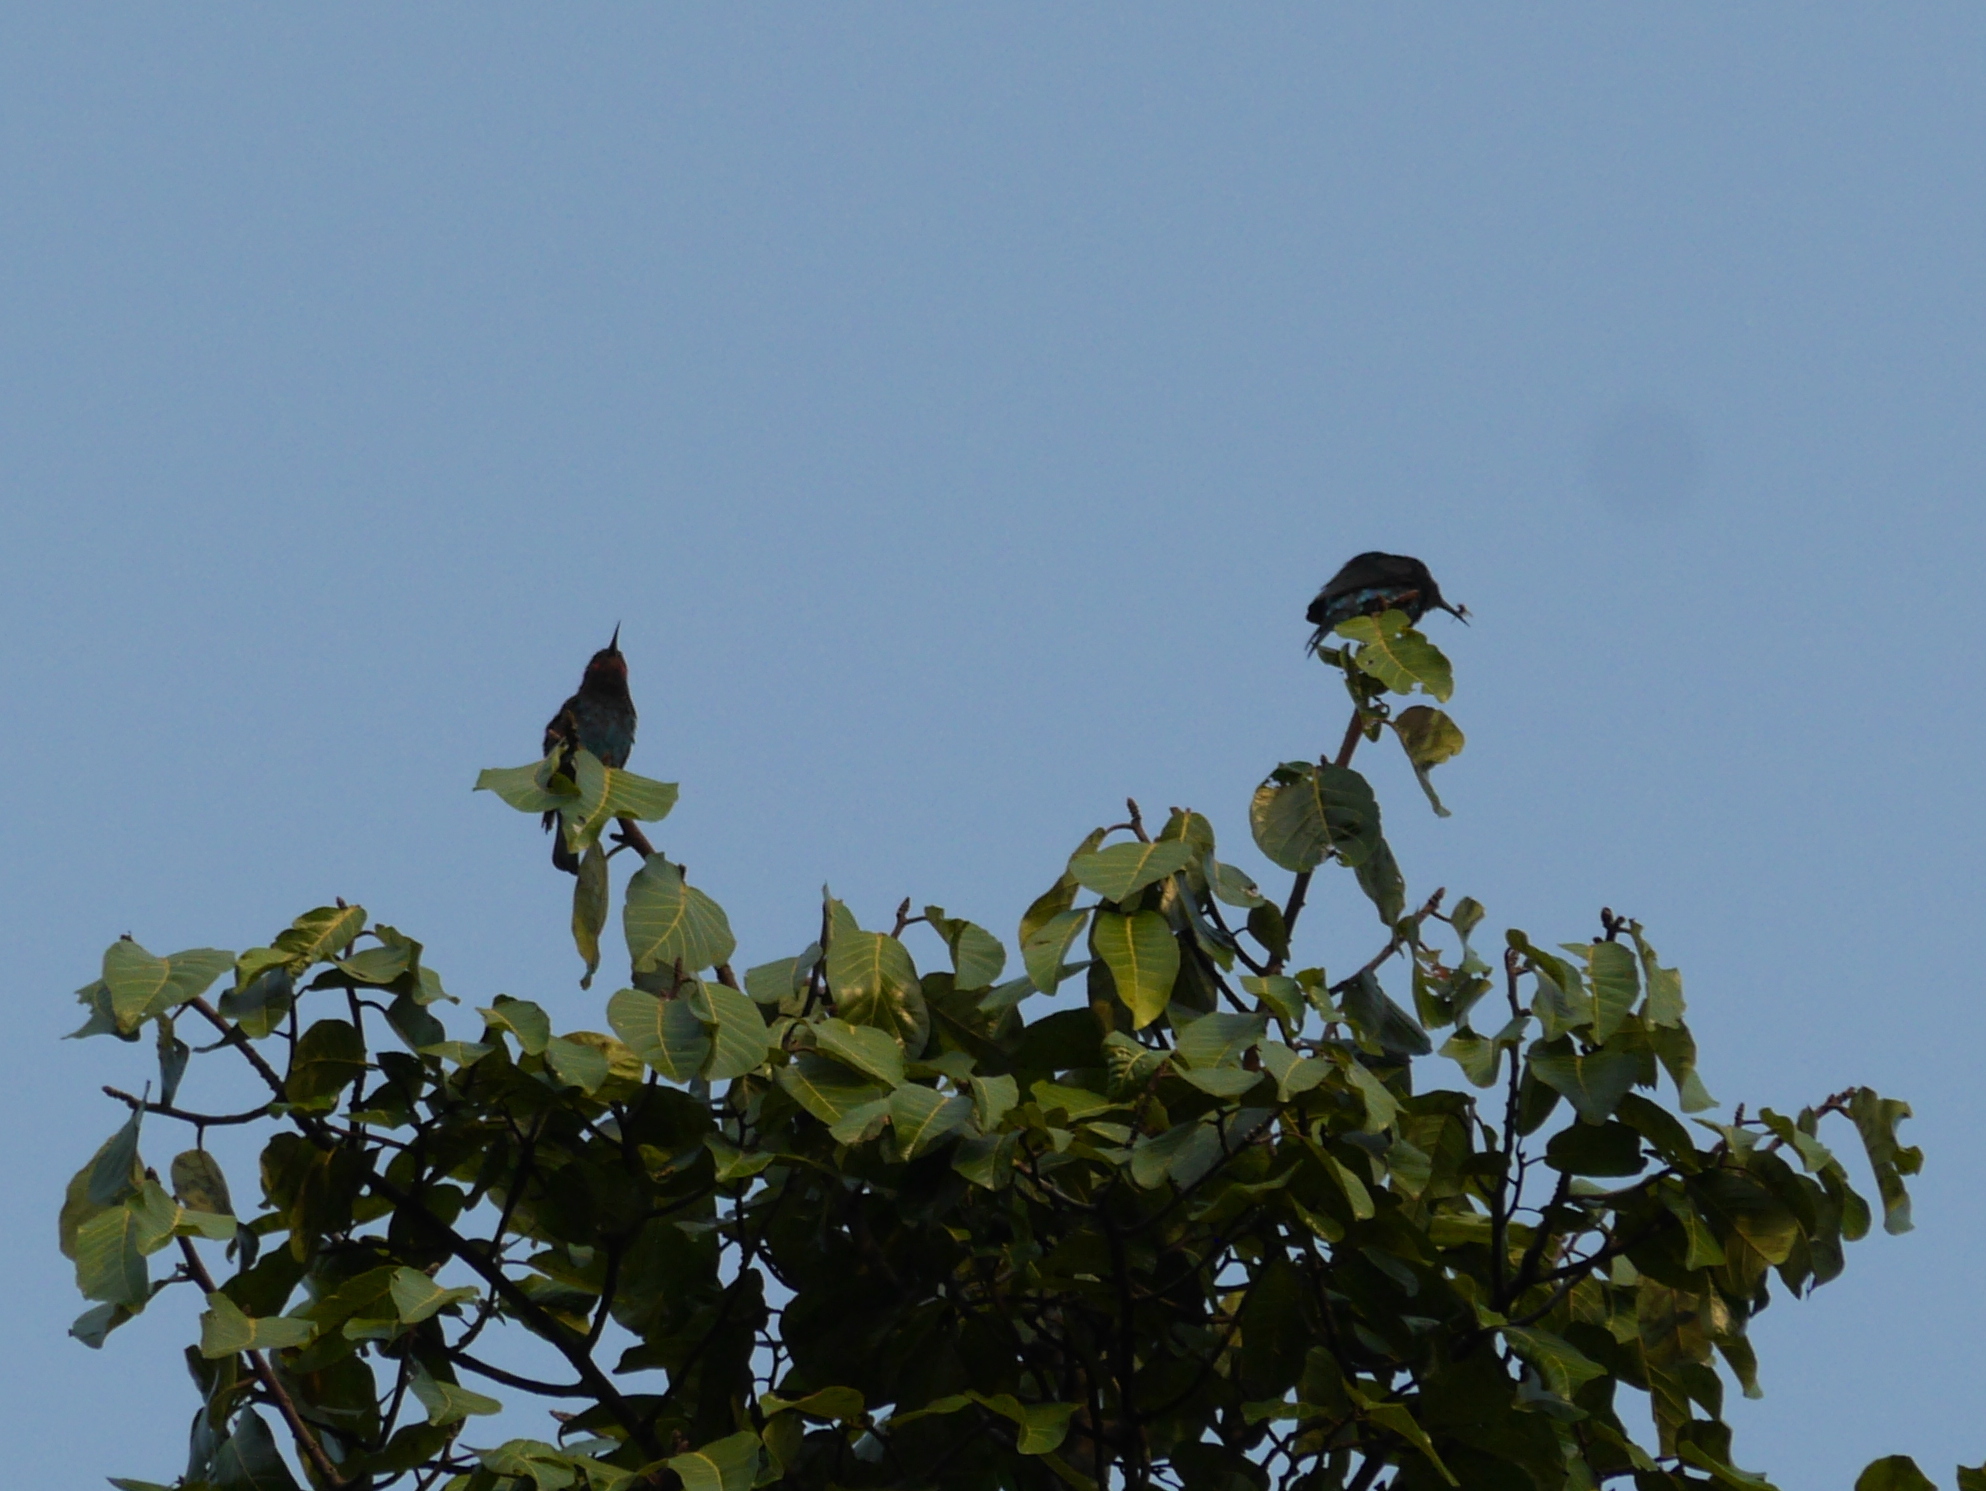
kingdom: Animalia
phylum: Chordata
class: Aves
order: Coraciiformes
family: Meropidae
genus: Merops
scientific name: Merops gularis
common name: Black bee-eater
